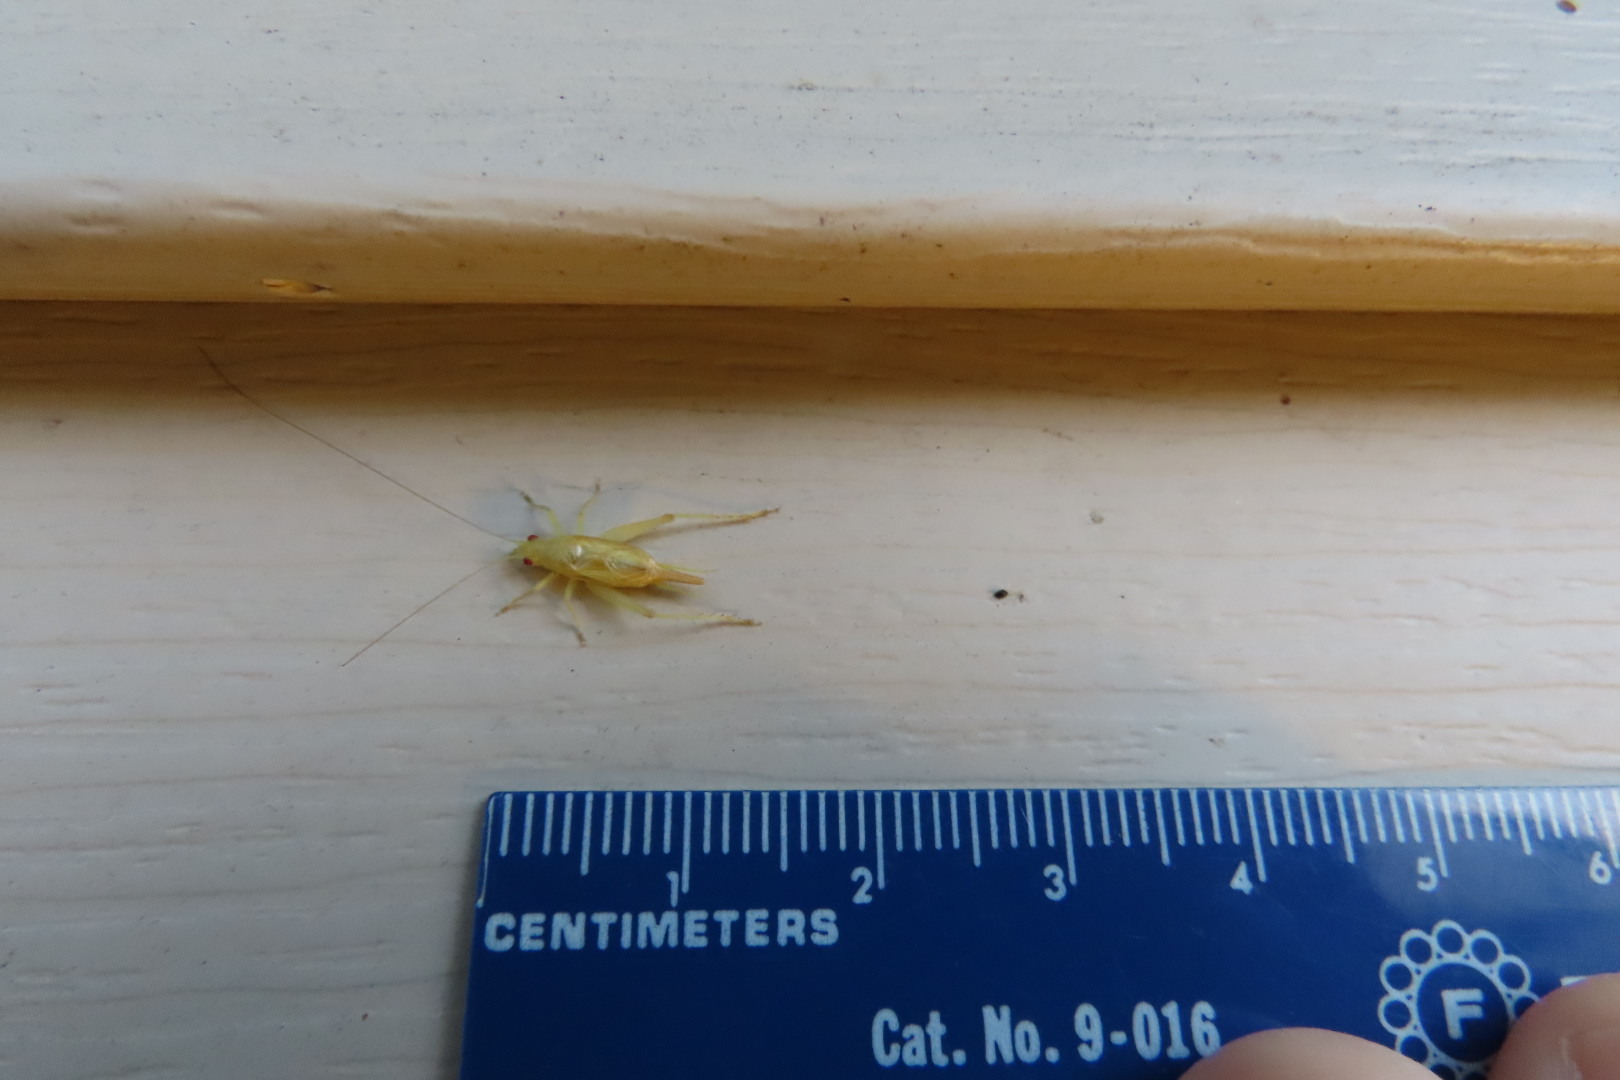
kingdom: Animalia
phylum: Arthropoda
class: Insecta
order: Orthoptera
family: Trigonidiidae
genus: Cyrtoxipha
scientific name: Cyrtoxipha columbiana
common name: Columbian trig
